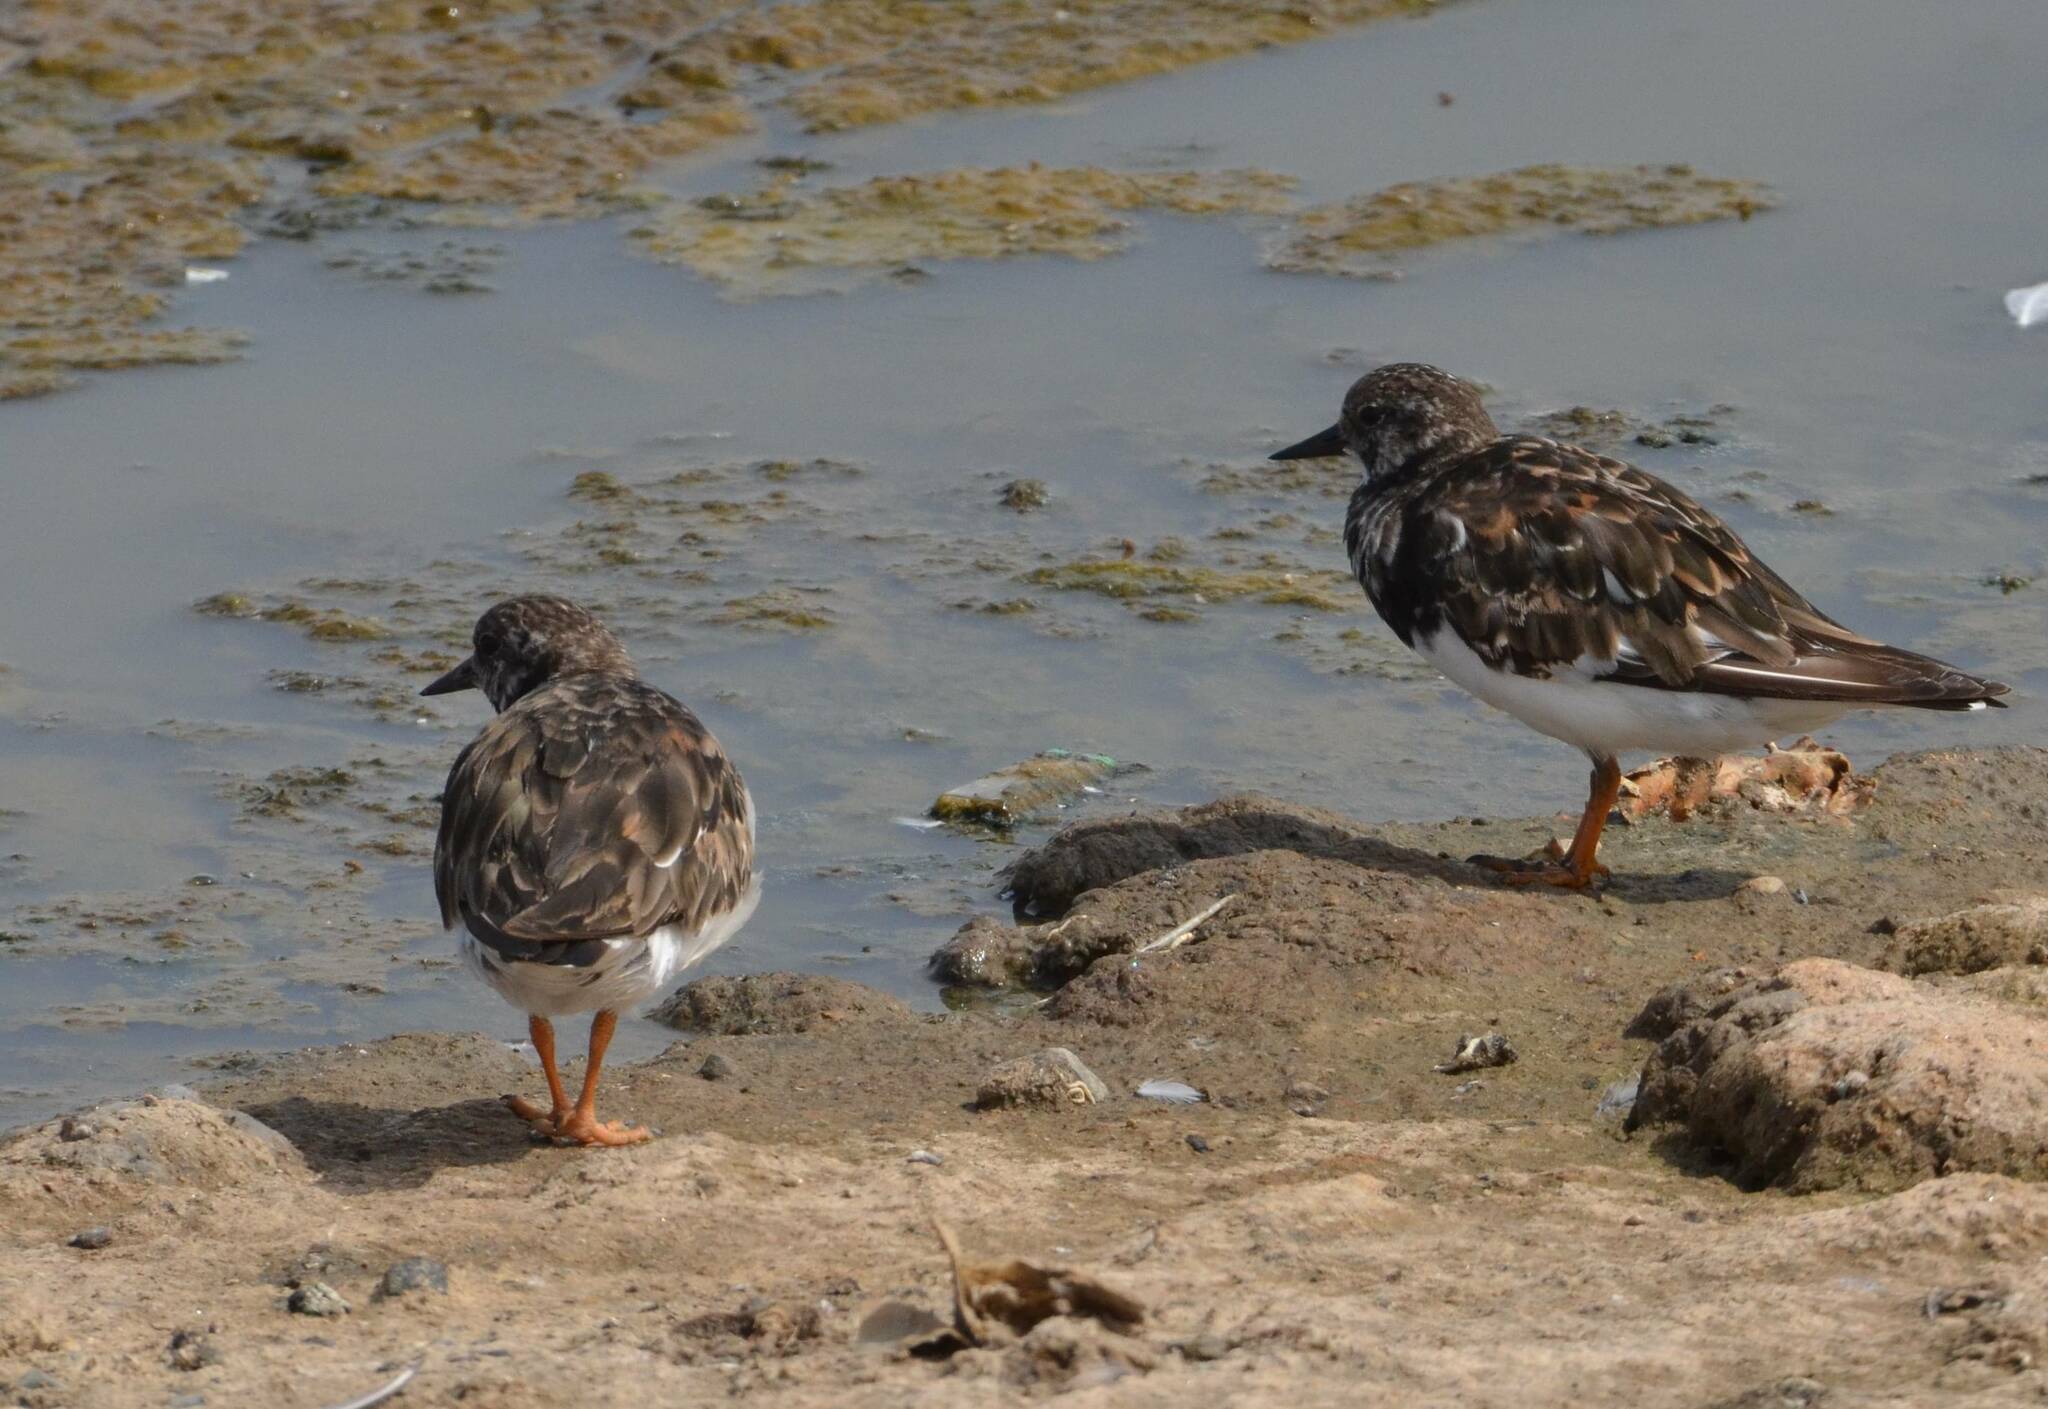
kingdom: Animalia
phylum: Chordata
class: Aves
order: Charadriiformes
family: Scolopacidae
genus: Arenaria
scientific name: Arenaria interpres
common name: Ruddy turnstone
